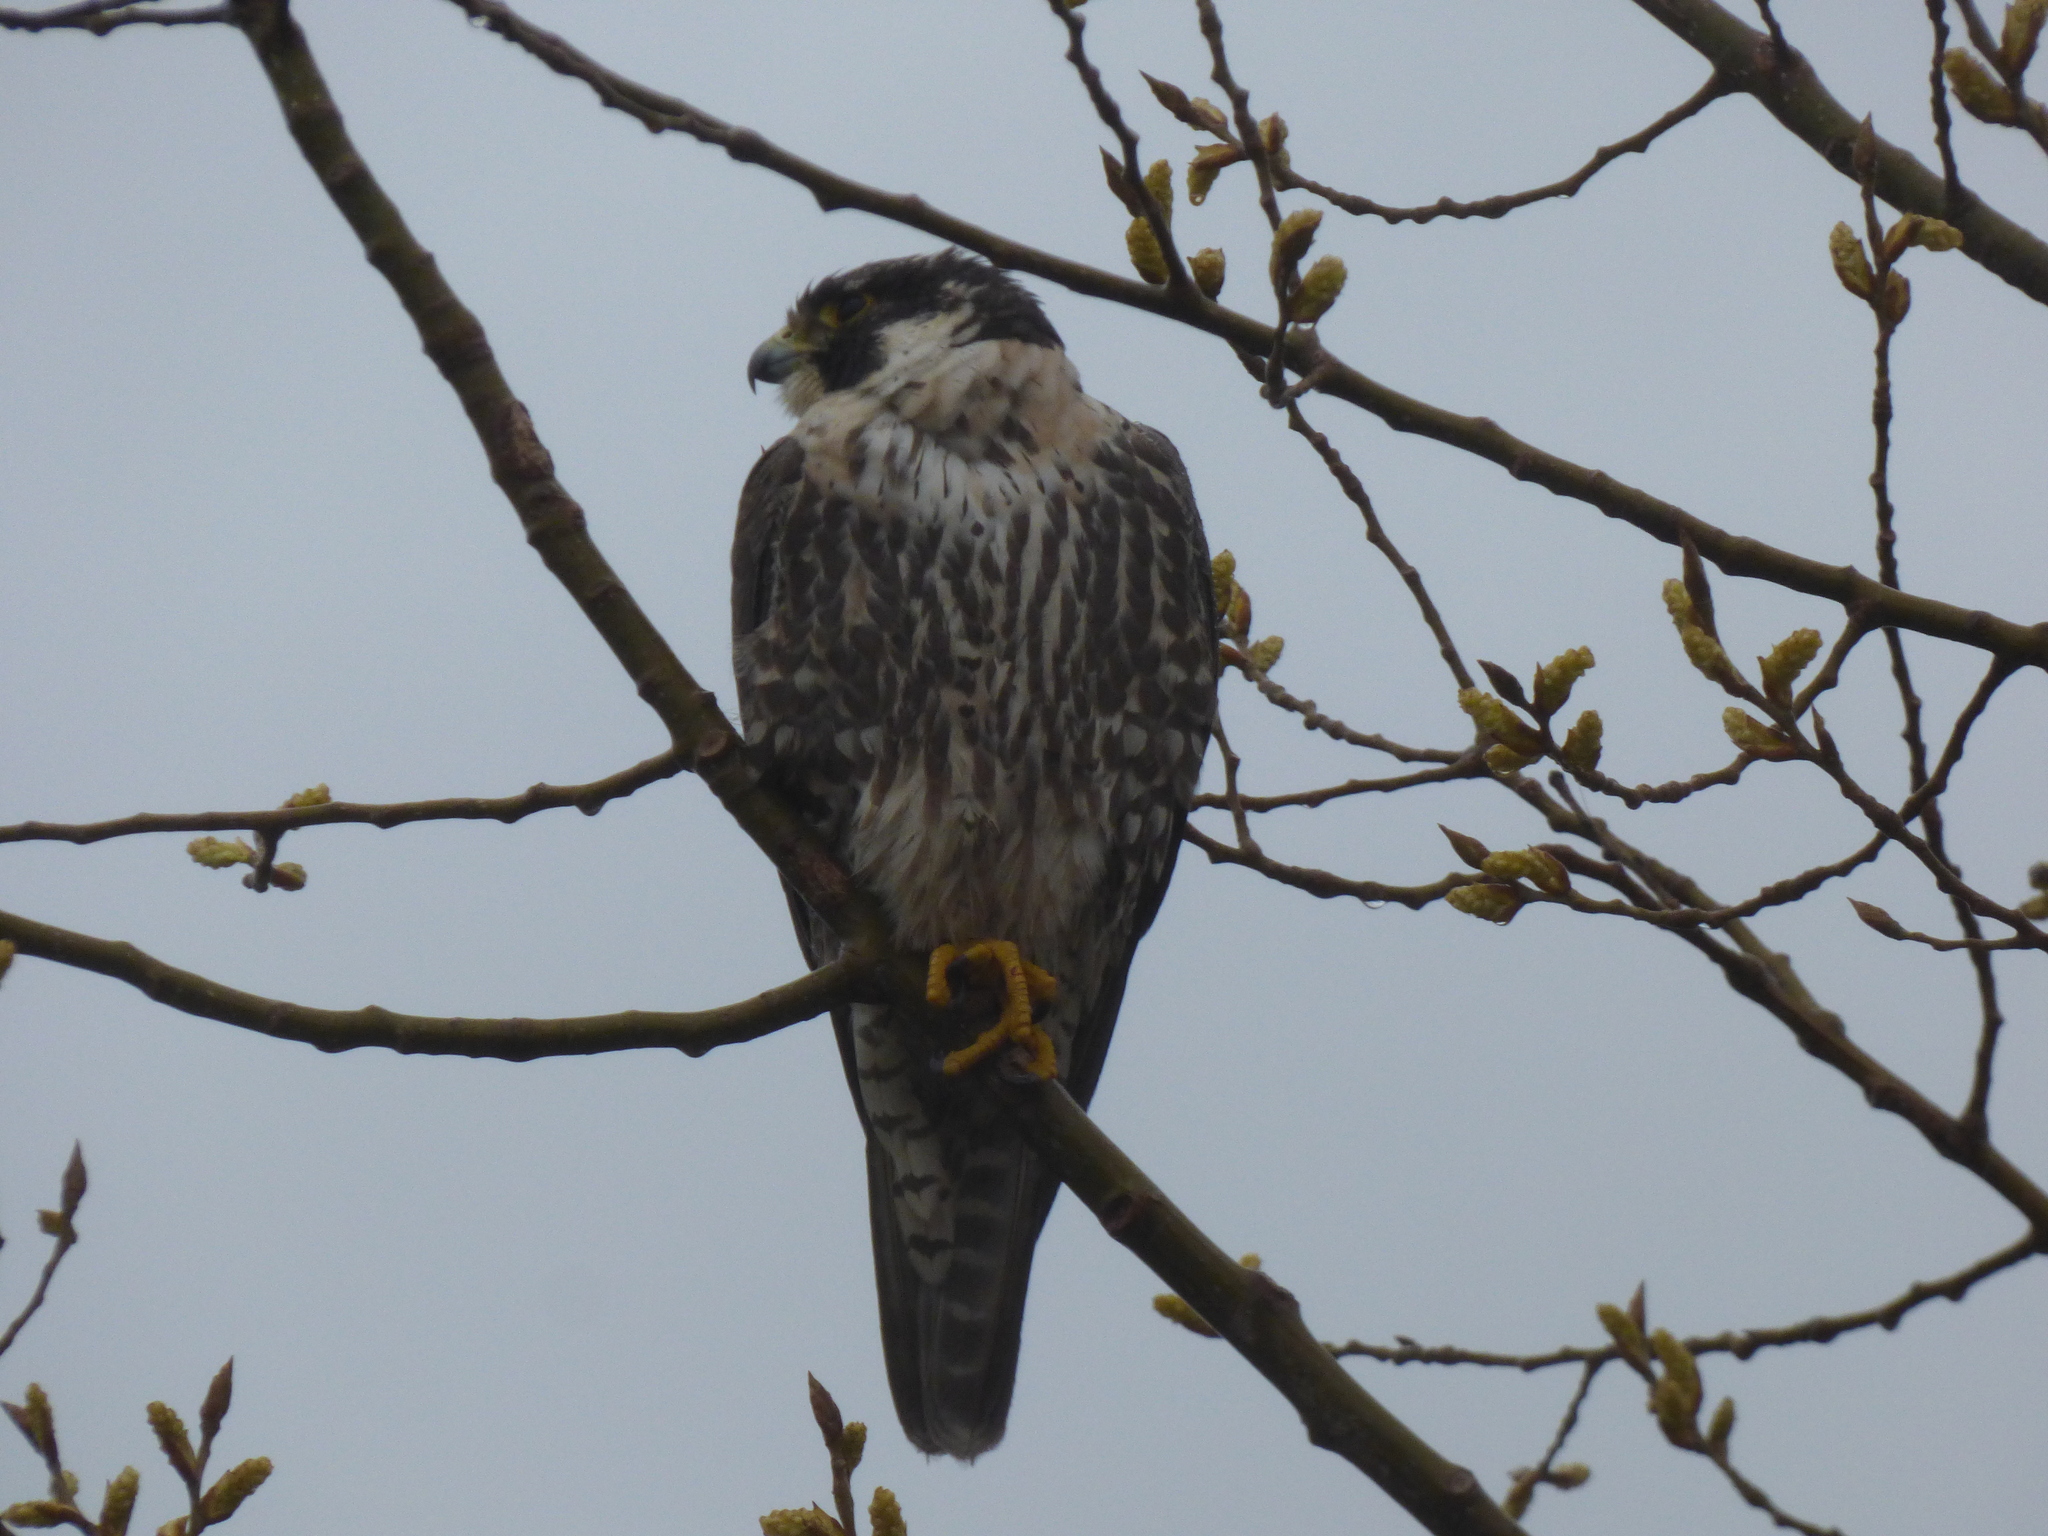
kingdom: Animalia
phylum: Chordata
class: Aves
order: Falconiformes
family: Falconidae
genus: Falco
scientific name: Falco peregrinus
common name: Peregrine falcon
